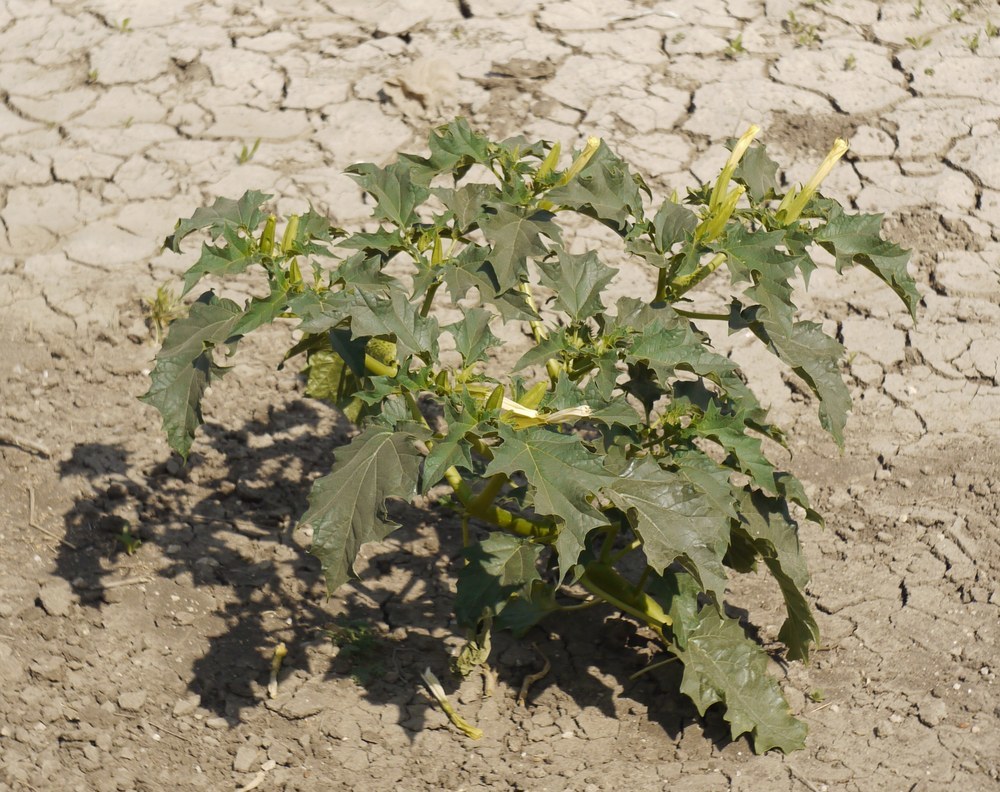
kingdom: Plantae
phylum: Tracheophyta
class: Magnoliopsida
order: Solanales
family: Solanaceae
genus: Datura
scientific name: Datura stramonium
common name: Thorn-apple
